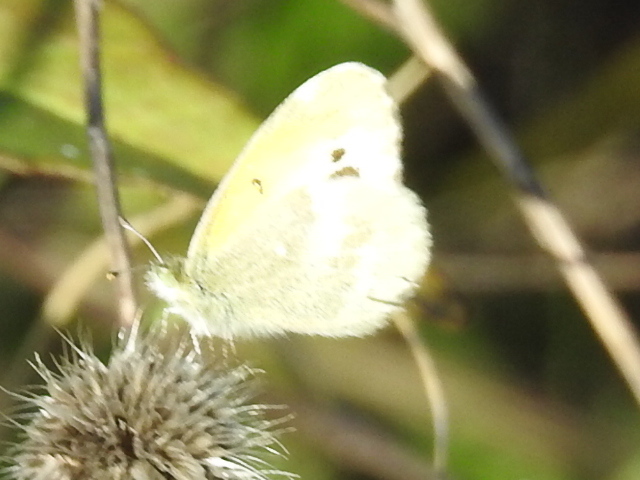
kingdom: Animalia
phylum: Arthropoda
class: Insecta
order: Lepidoptera
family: Pieridae
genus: Nathalis
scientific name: Nathalis iole
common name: Dainty sulphur
